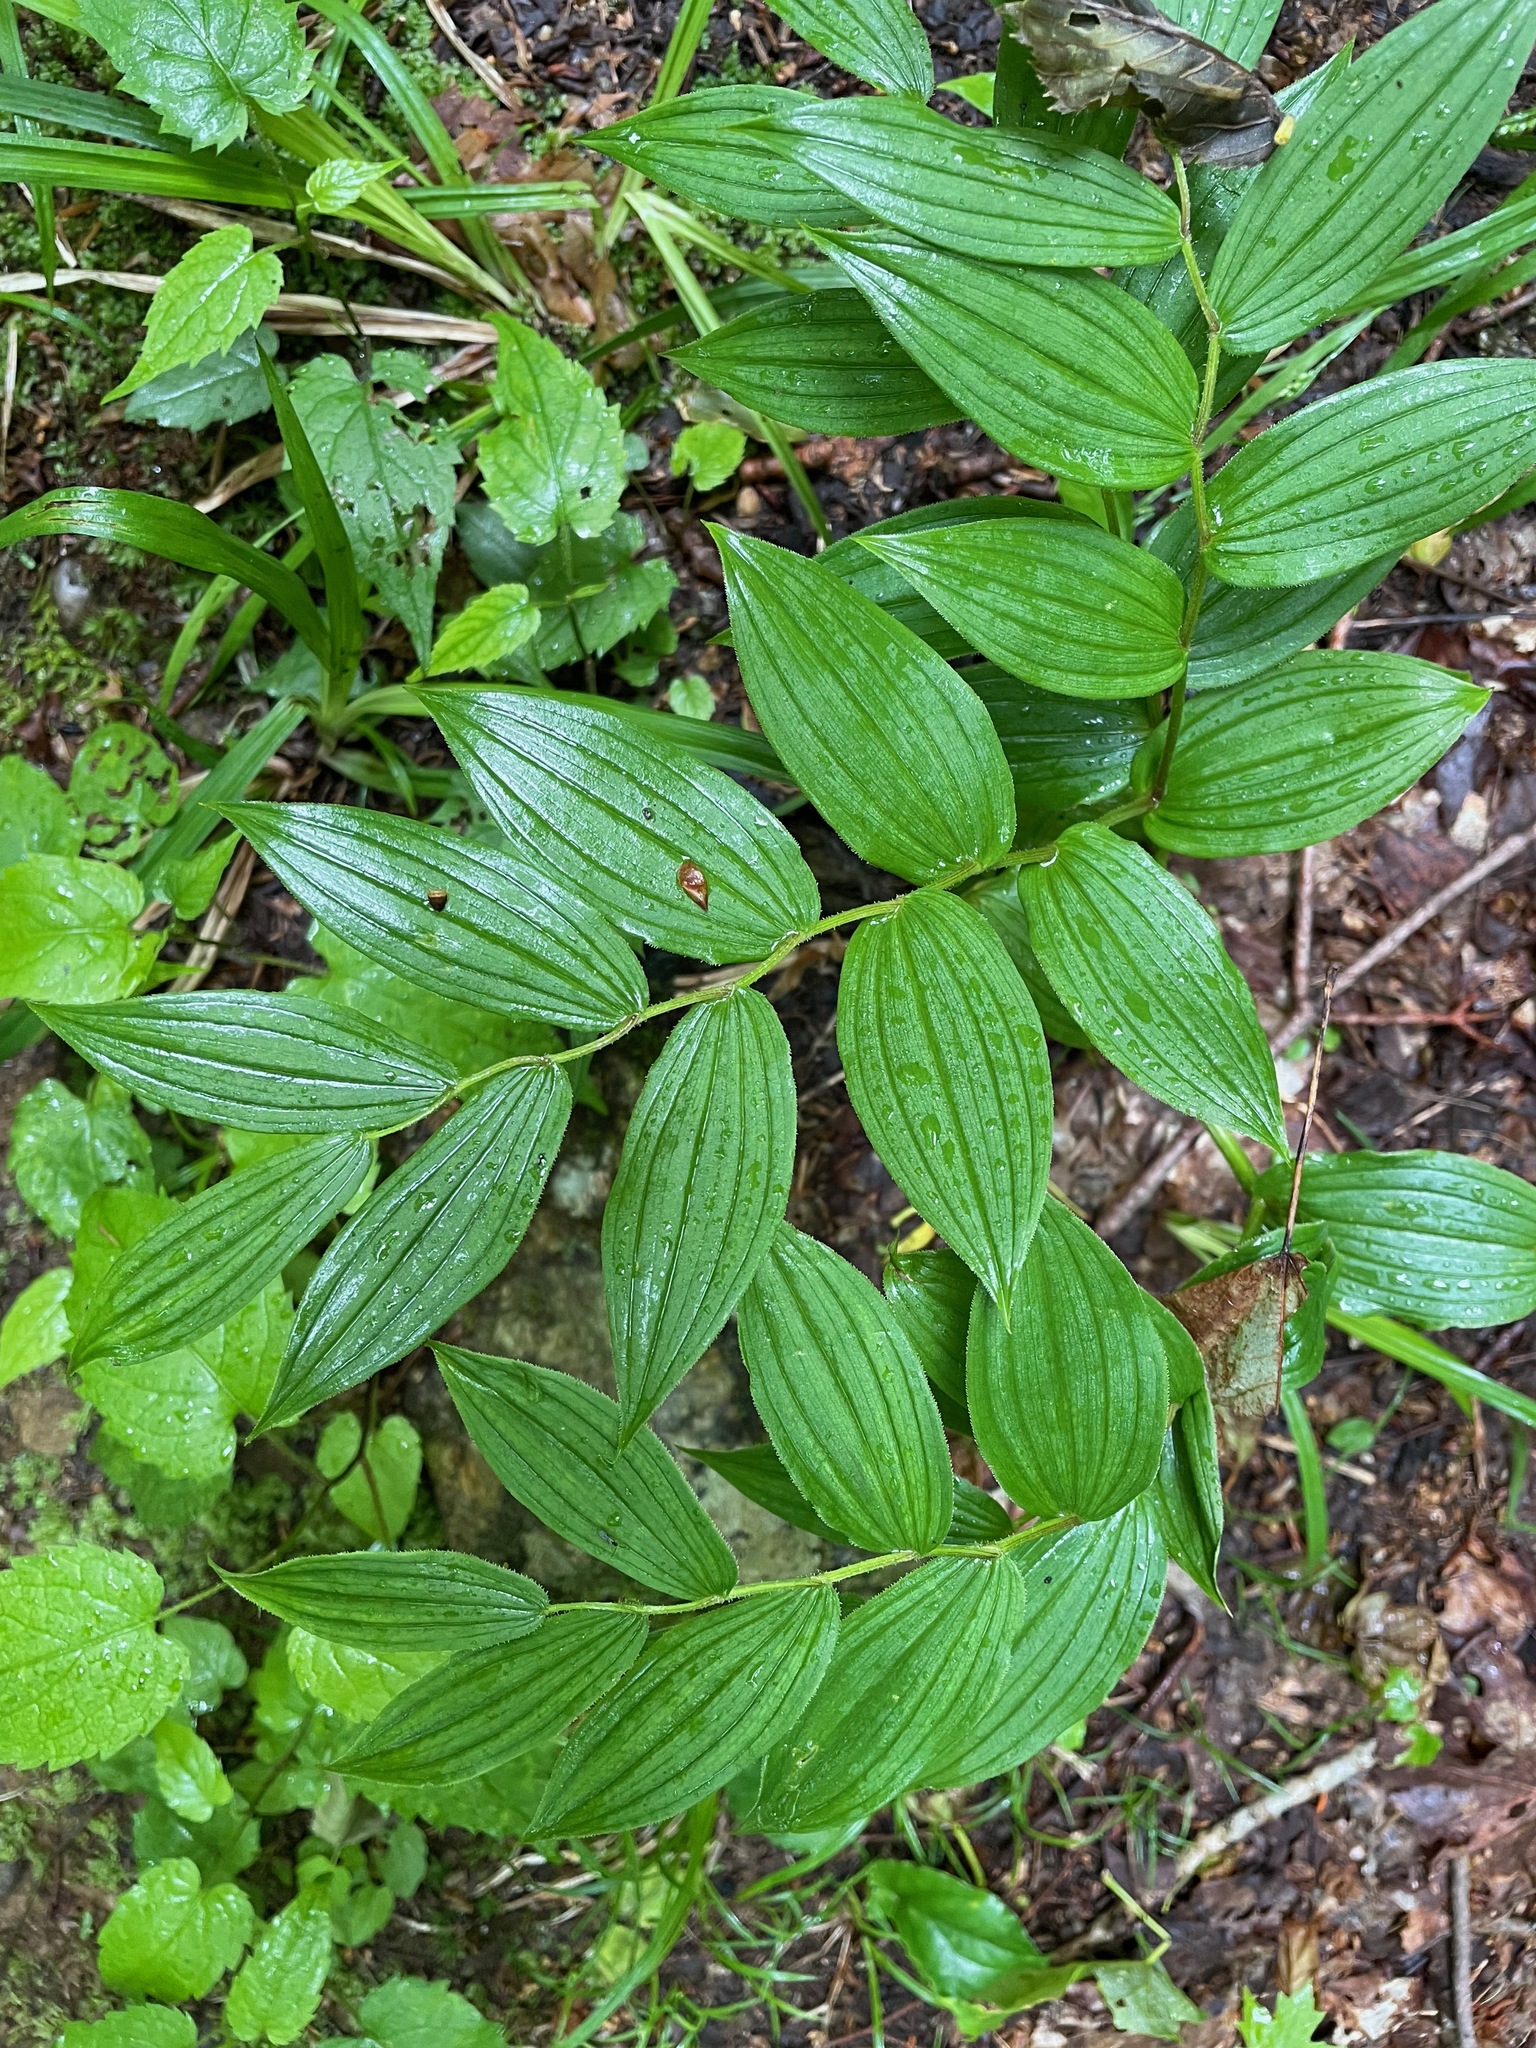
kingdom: Plantae
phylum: Tracheophyta
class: Liliopsida
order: Liliales
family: Liliaceae
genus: Streptopus
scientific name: Streptopus lanceolatus
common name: Rose mandarin
